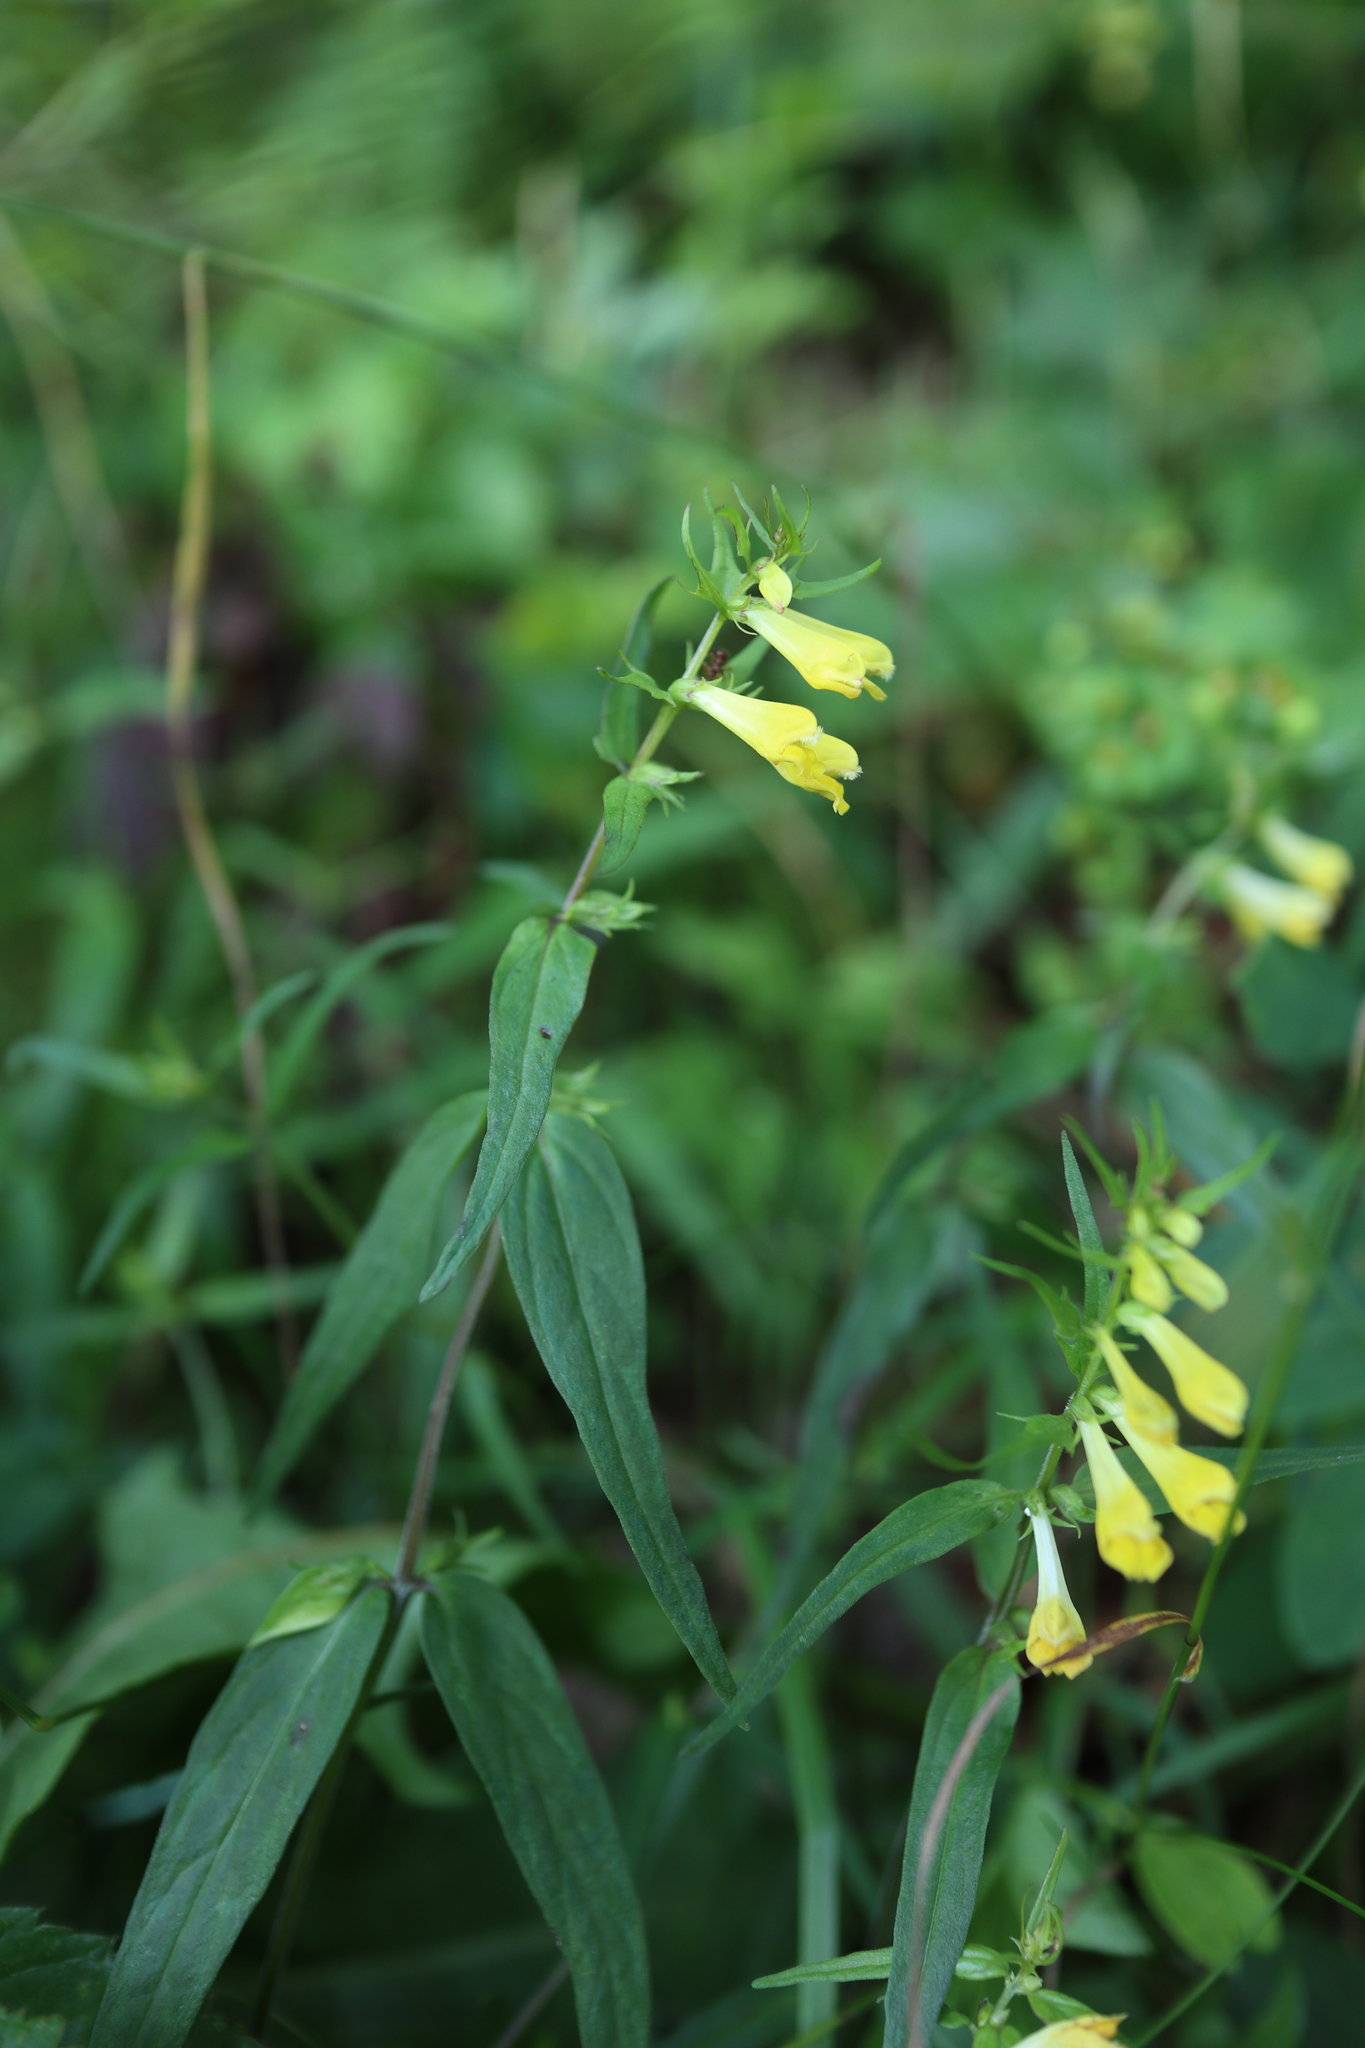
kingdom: Plantae
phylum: Tracheophyta
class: Magnoliopsida
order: Lamiales
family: Orobanchaceae
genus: Melampyrum
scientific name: Melampyrum pratense
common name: Common cow-wheat
